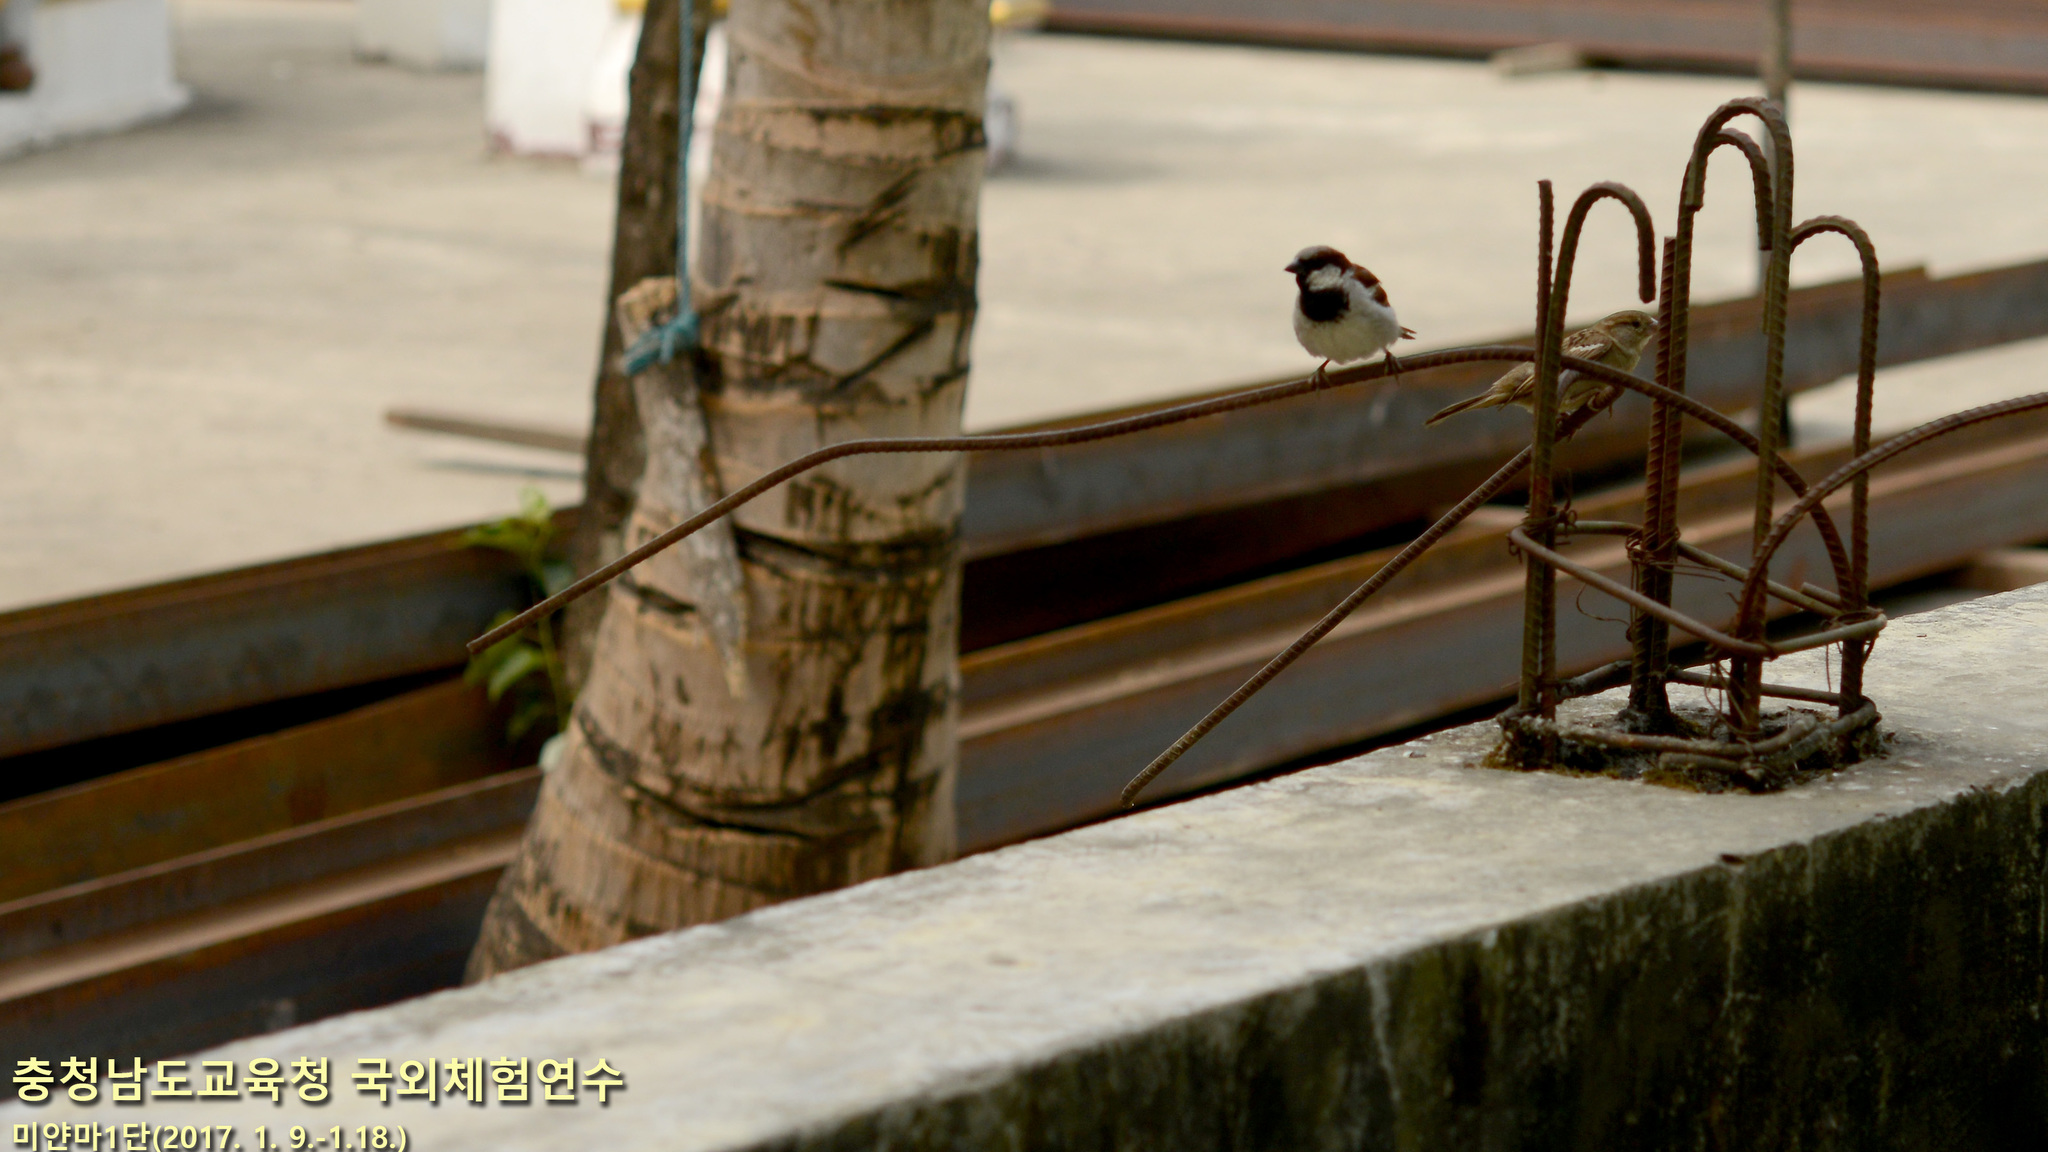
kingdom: Animalia
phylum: Chordata
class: Aves
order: Passeriformes
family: Passeridae
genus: Passer
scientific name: Passer domesticus
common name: House sparrow
